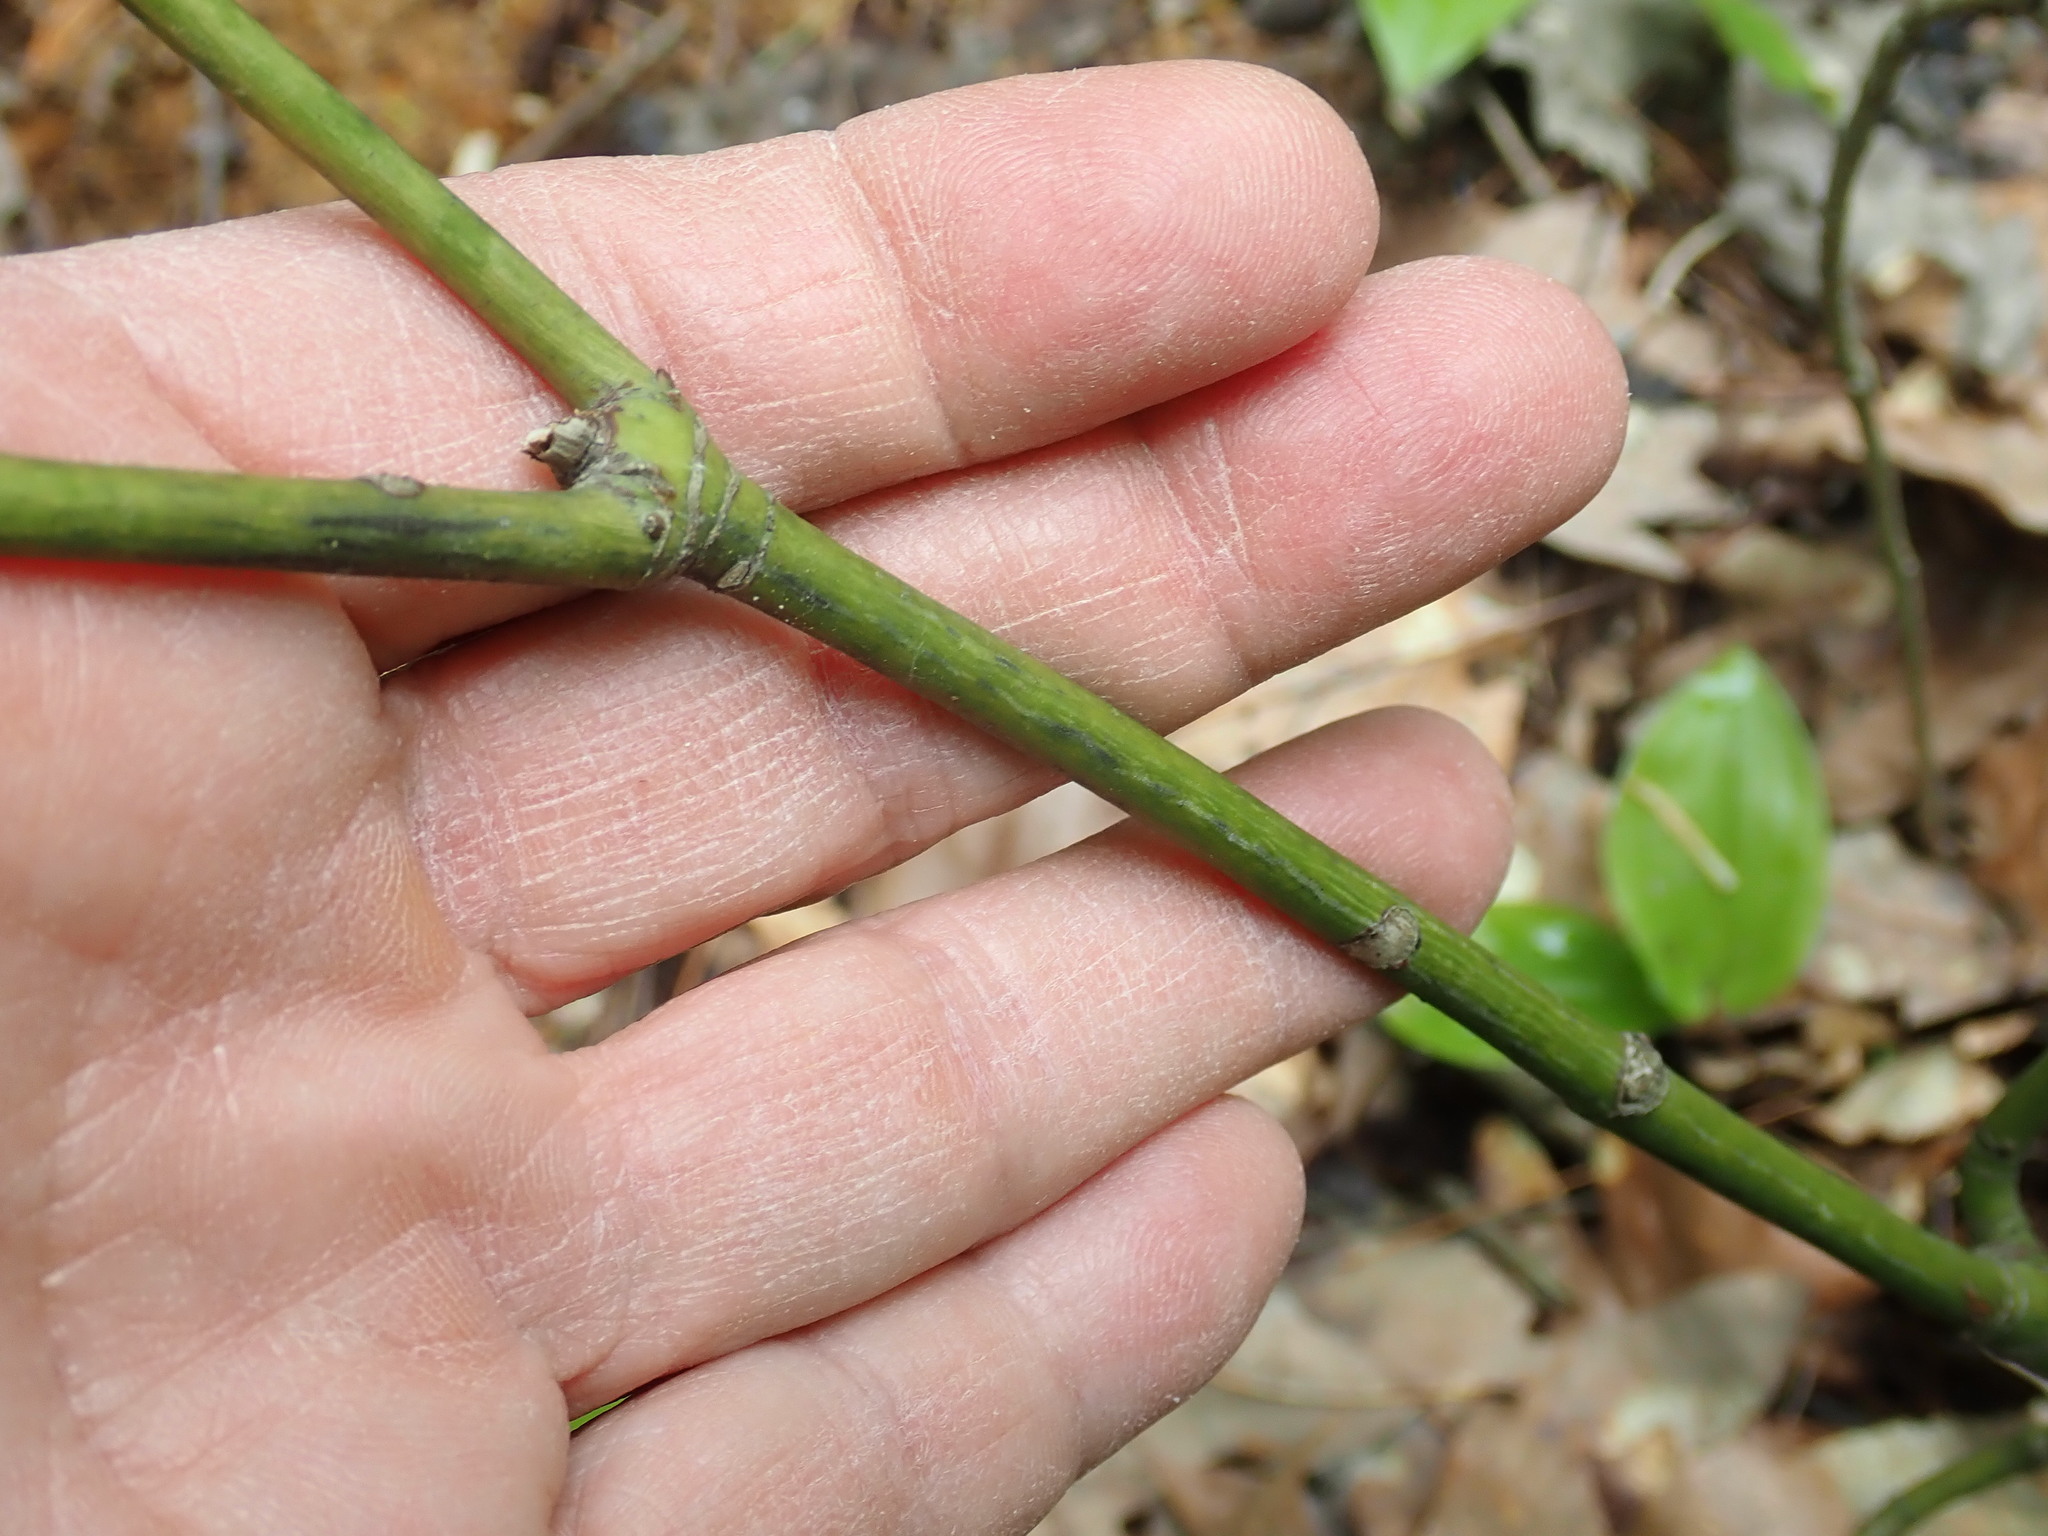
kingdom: Plantae
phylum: Tracheophyta
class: Magnoliopsida
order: Sapindales
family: Sapindaceae
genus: Acer
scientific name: Acer pensylvanicum
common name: Moosewood
